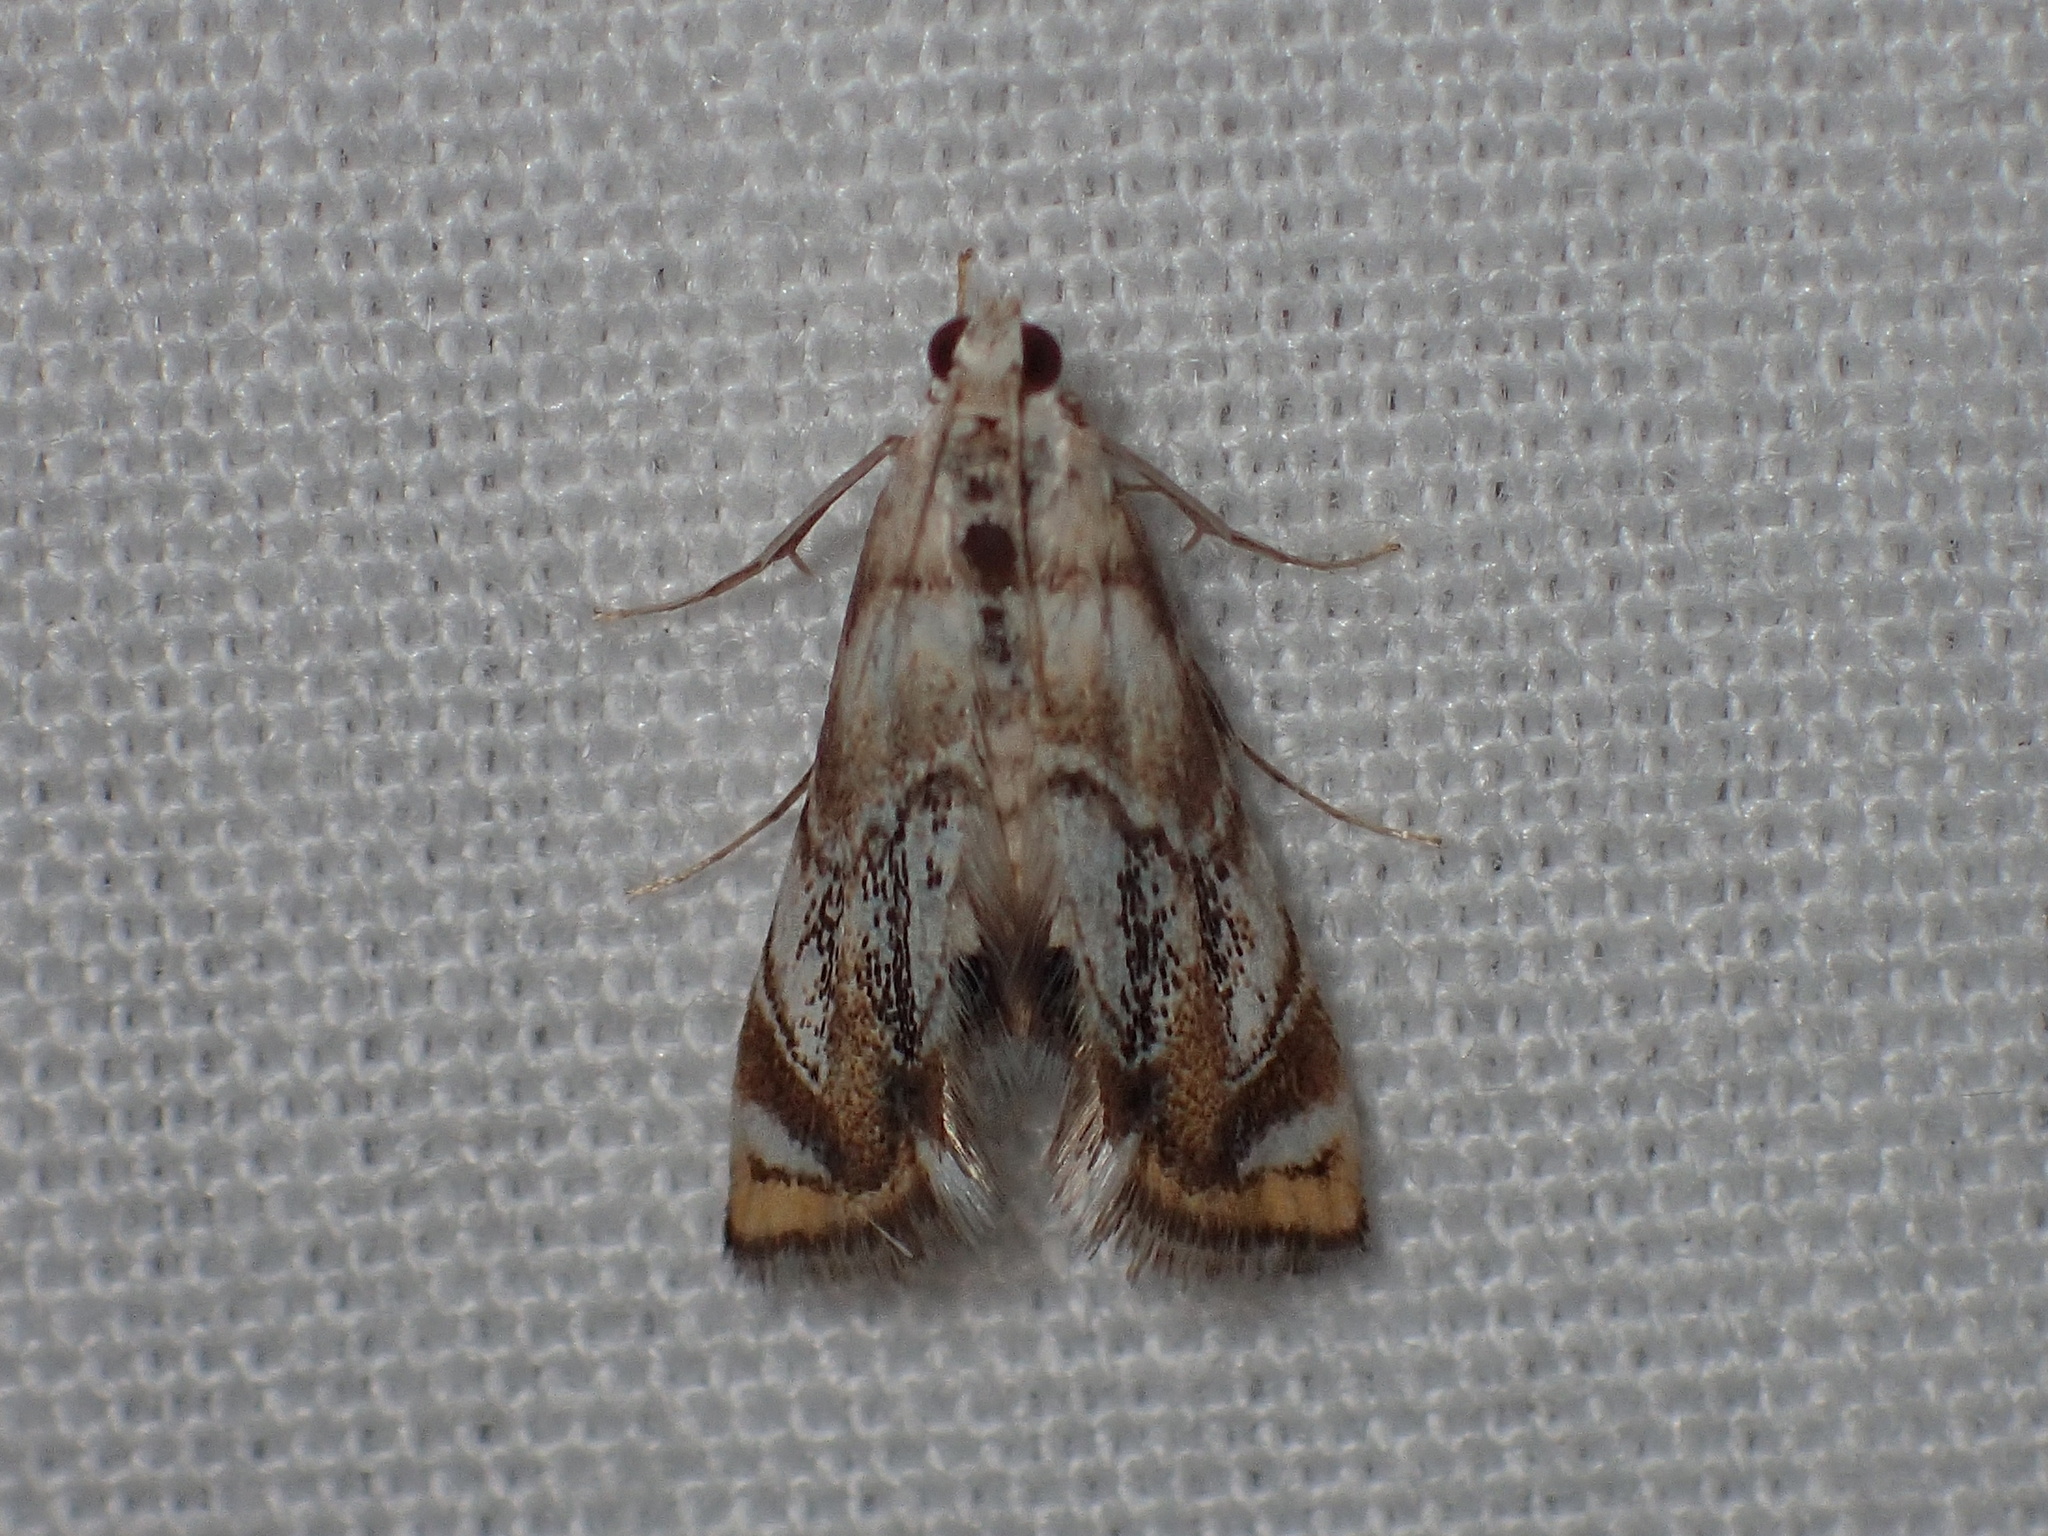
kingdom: Animalia
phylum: Arthropoda
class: Insecta
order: Lepidoptera
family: Crambidae
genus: Eoparargyractis
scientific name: Eoparargyractis irroratalis
